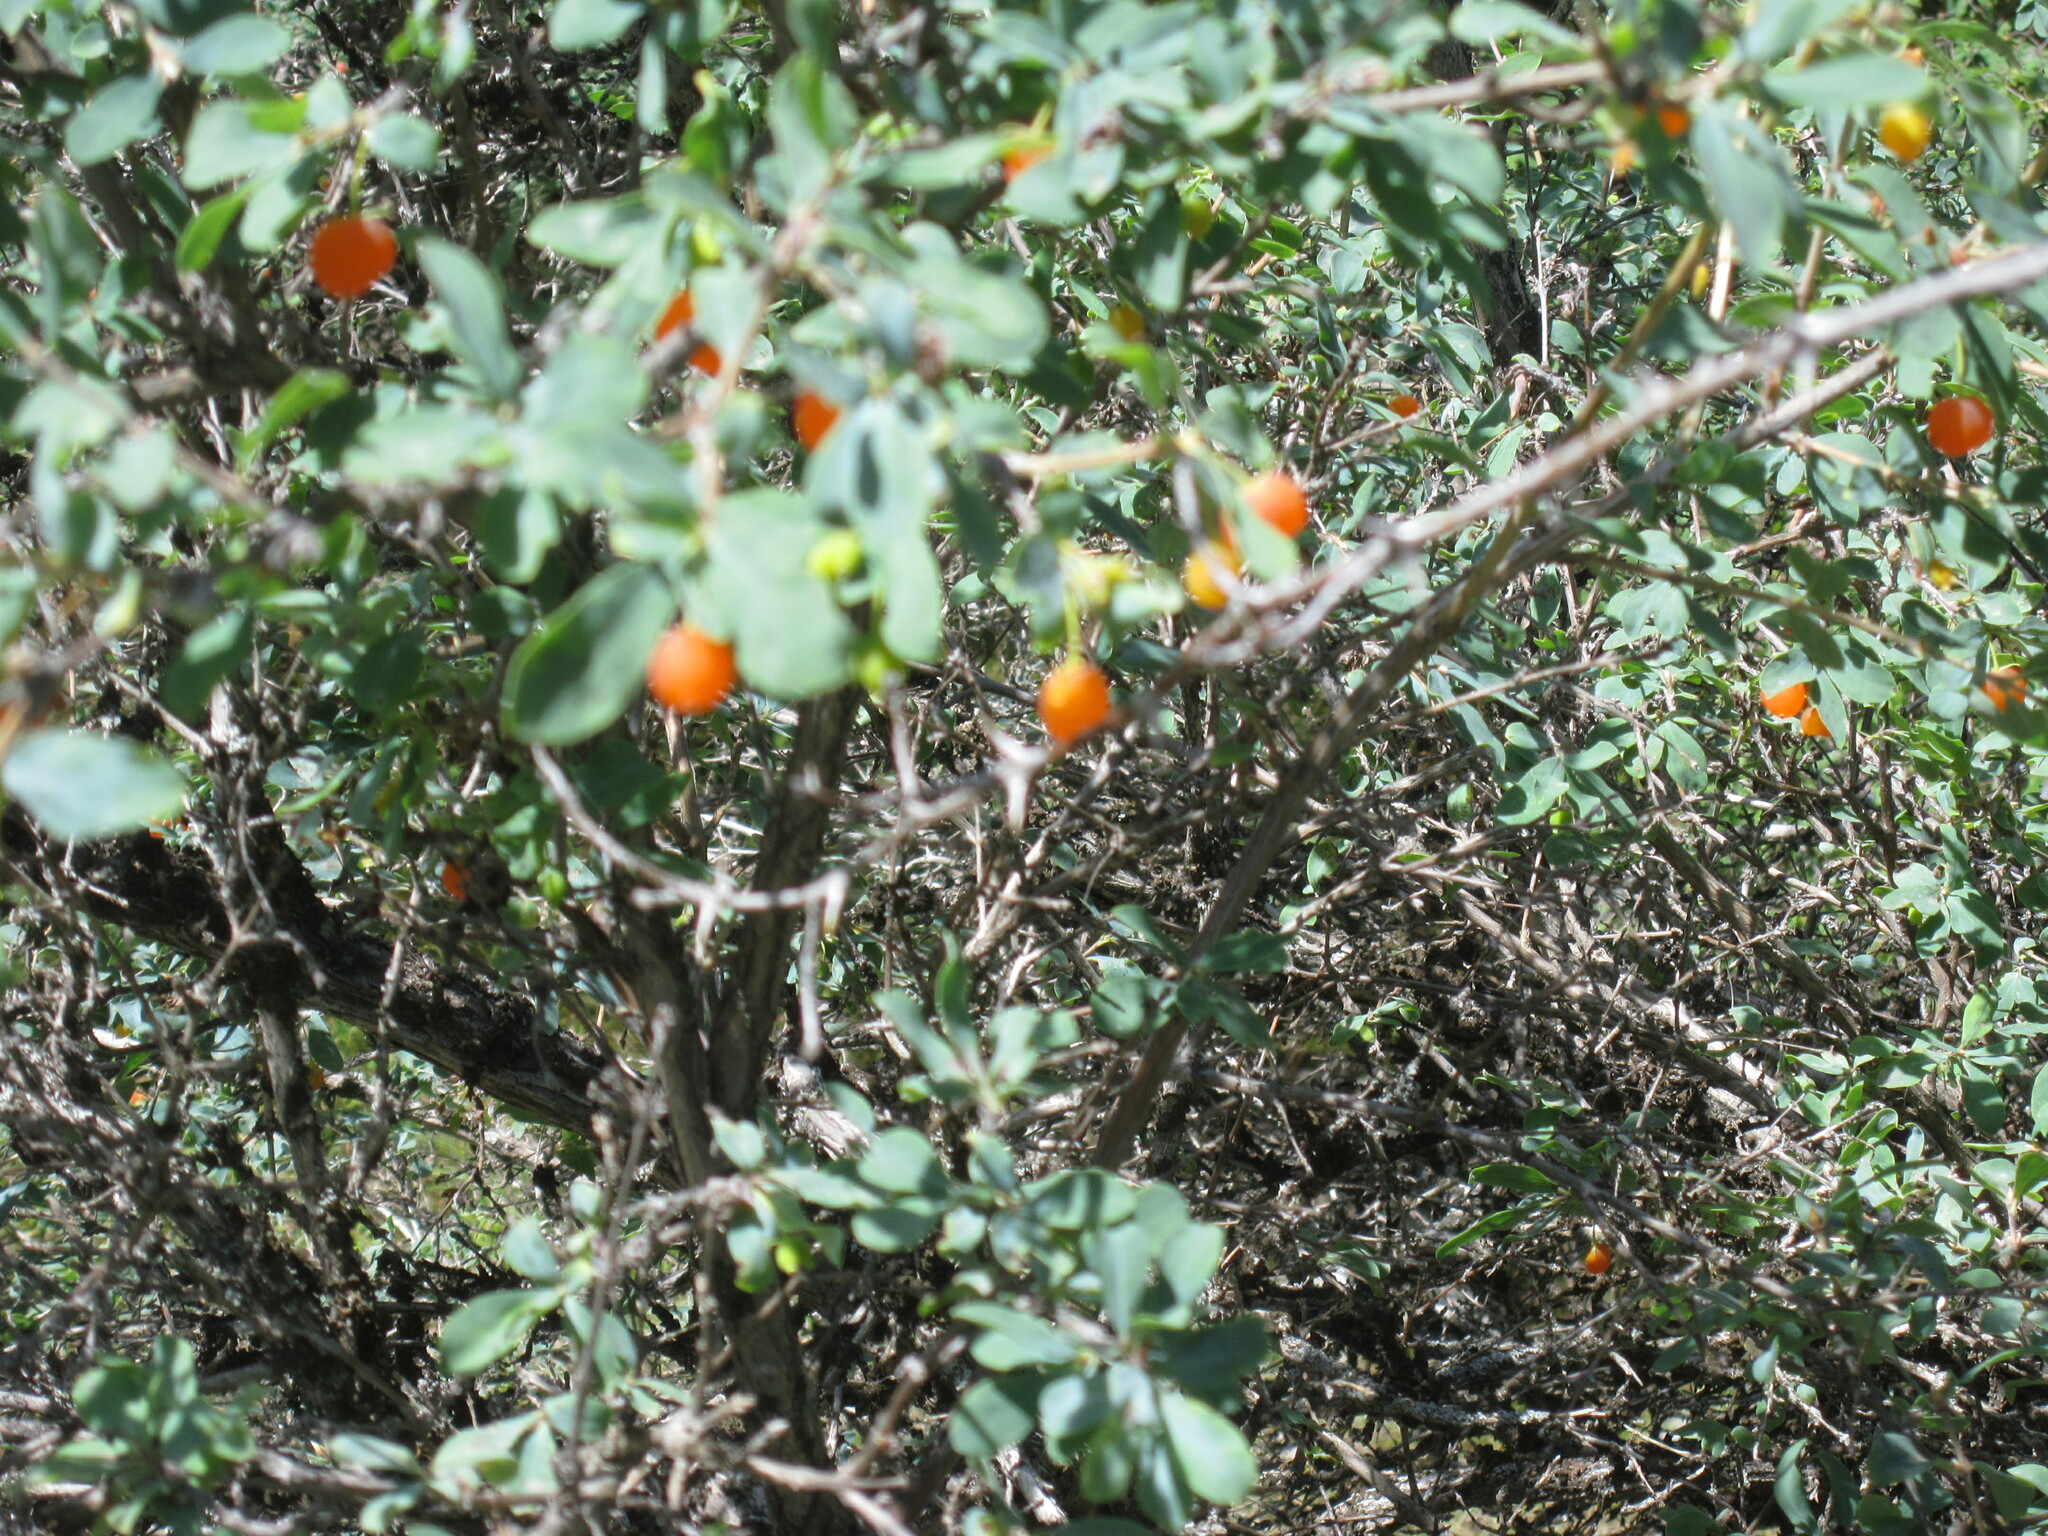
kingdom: Plantae
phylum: Tracheophyta
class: Magnoliopsida
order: Dipsacales
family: Caprifoliaceae
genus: Lonicera
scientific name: Lonicera microphylla
